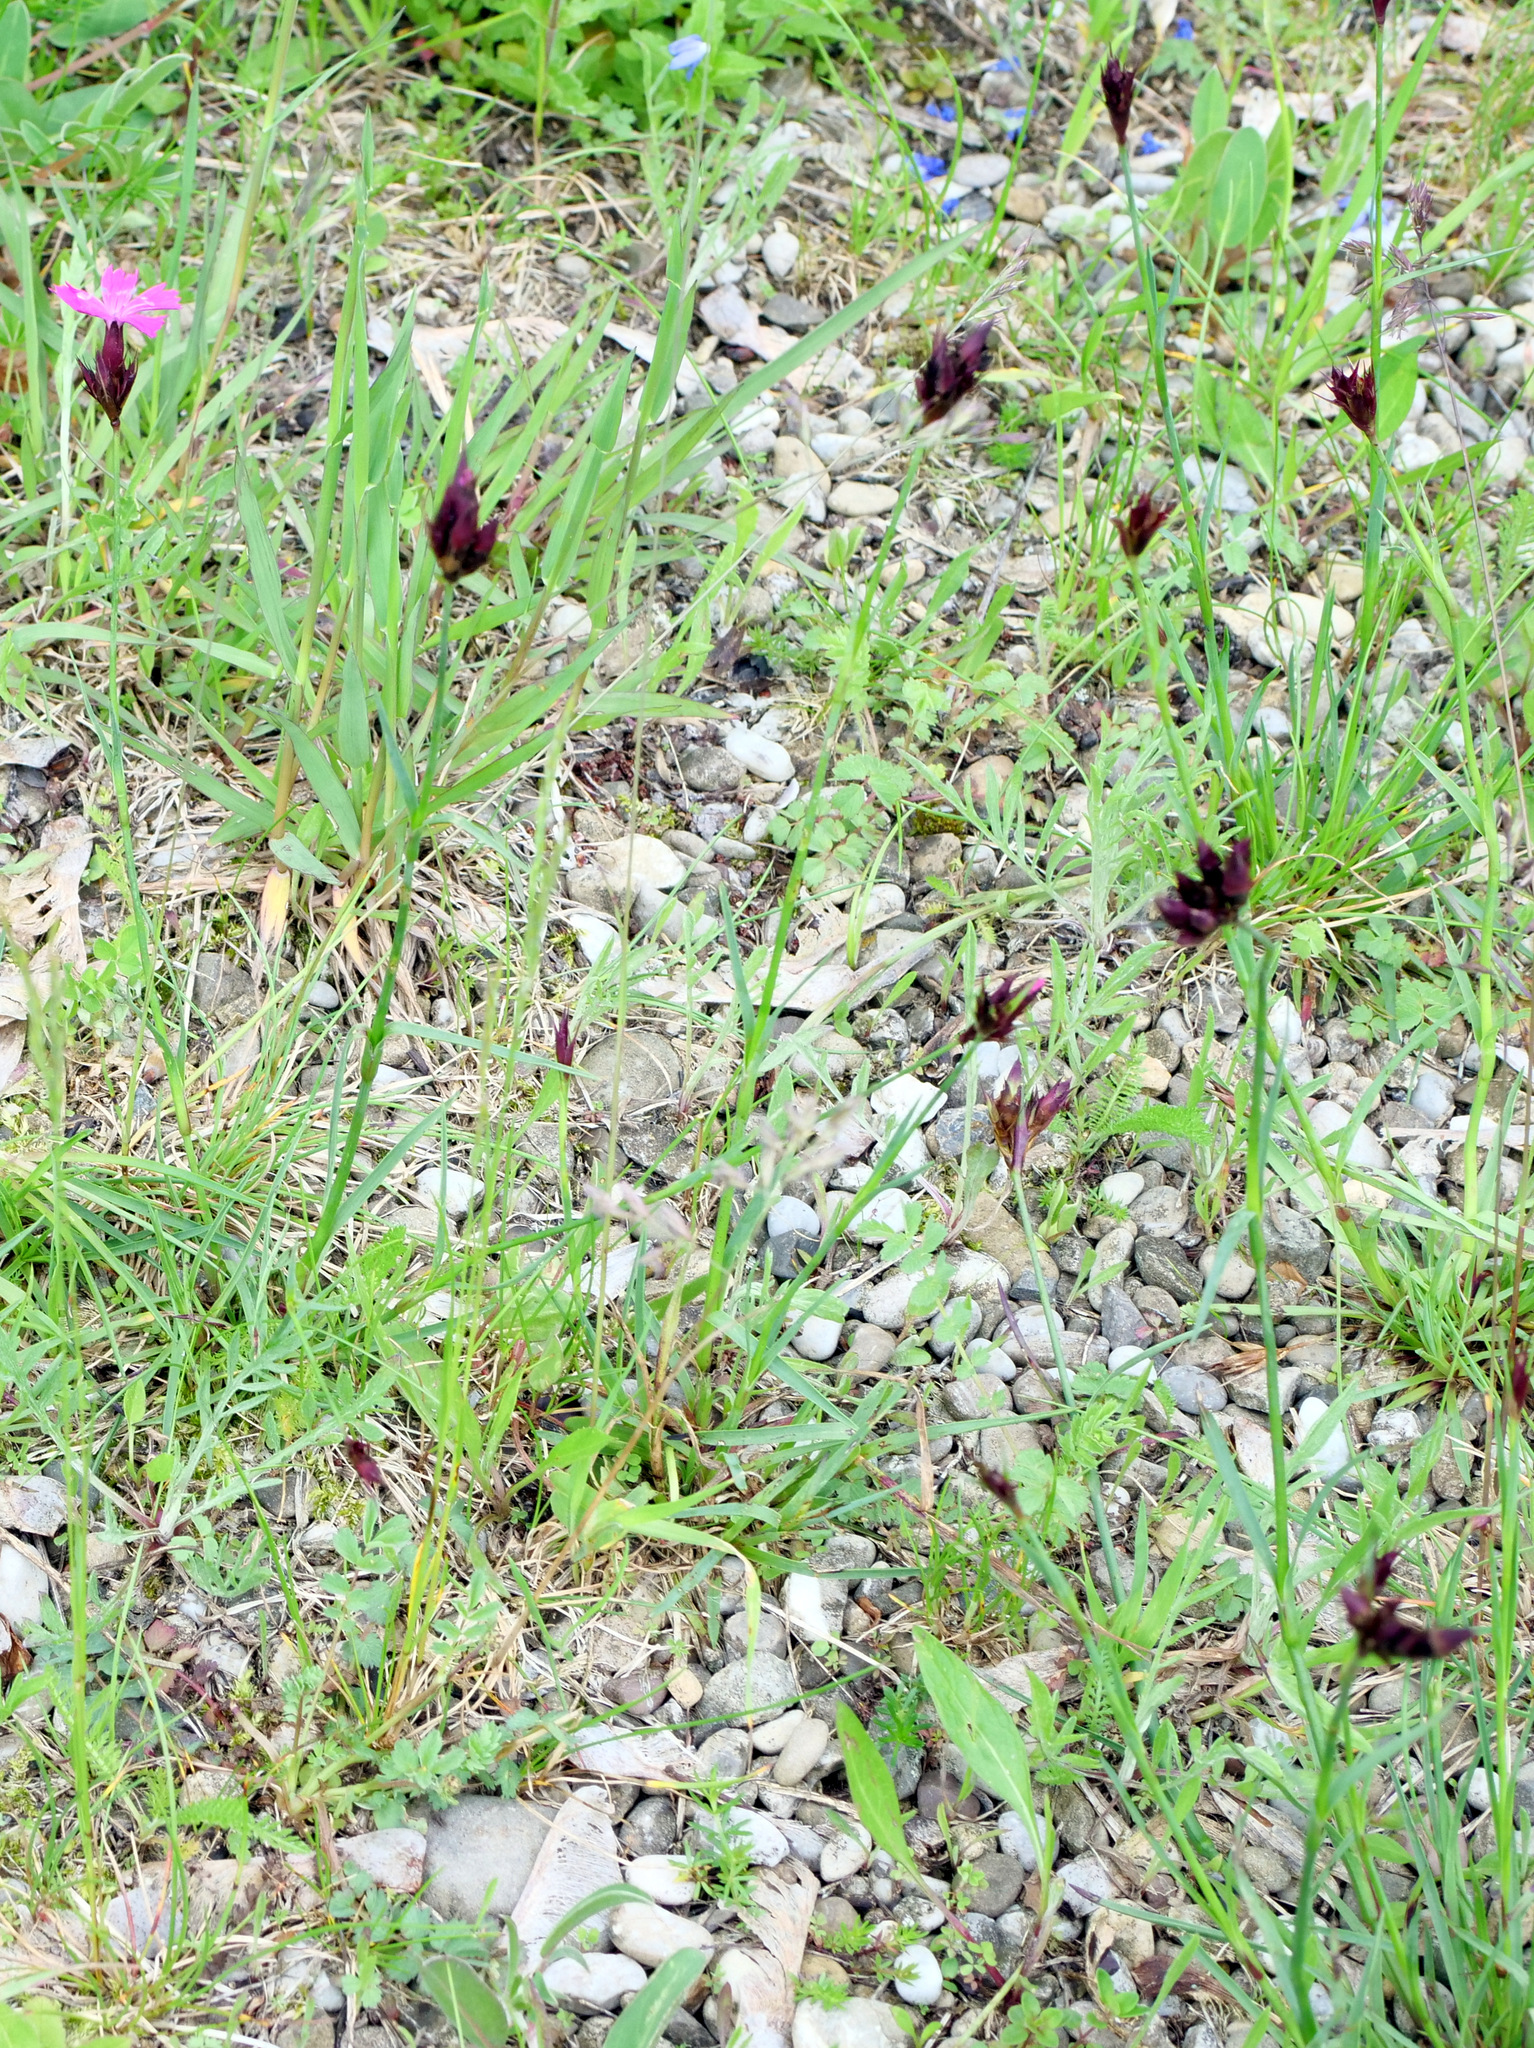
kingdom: Plantae
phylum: Tracheophyta
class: Magnoliopsida
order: Caryophyllales
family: Caryophyllaceae
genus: Dianthus
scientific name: Dianthus carthusianorum
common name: Carthusian pink
